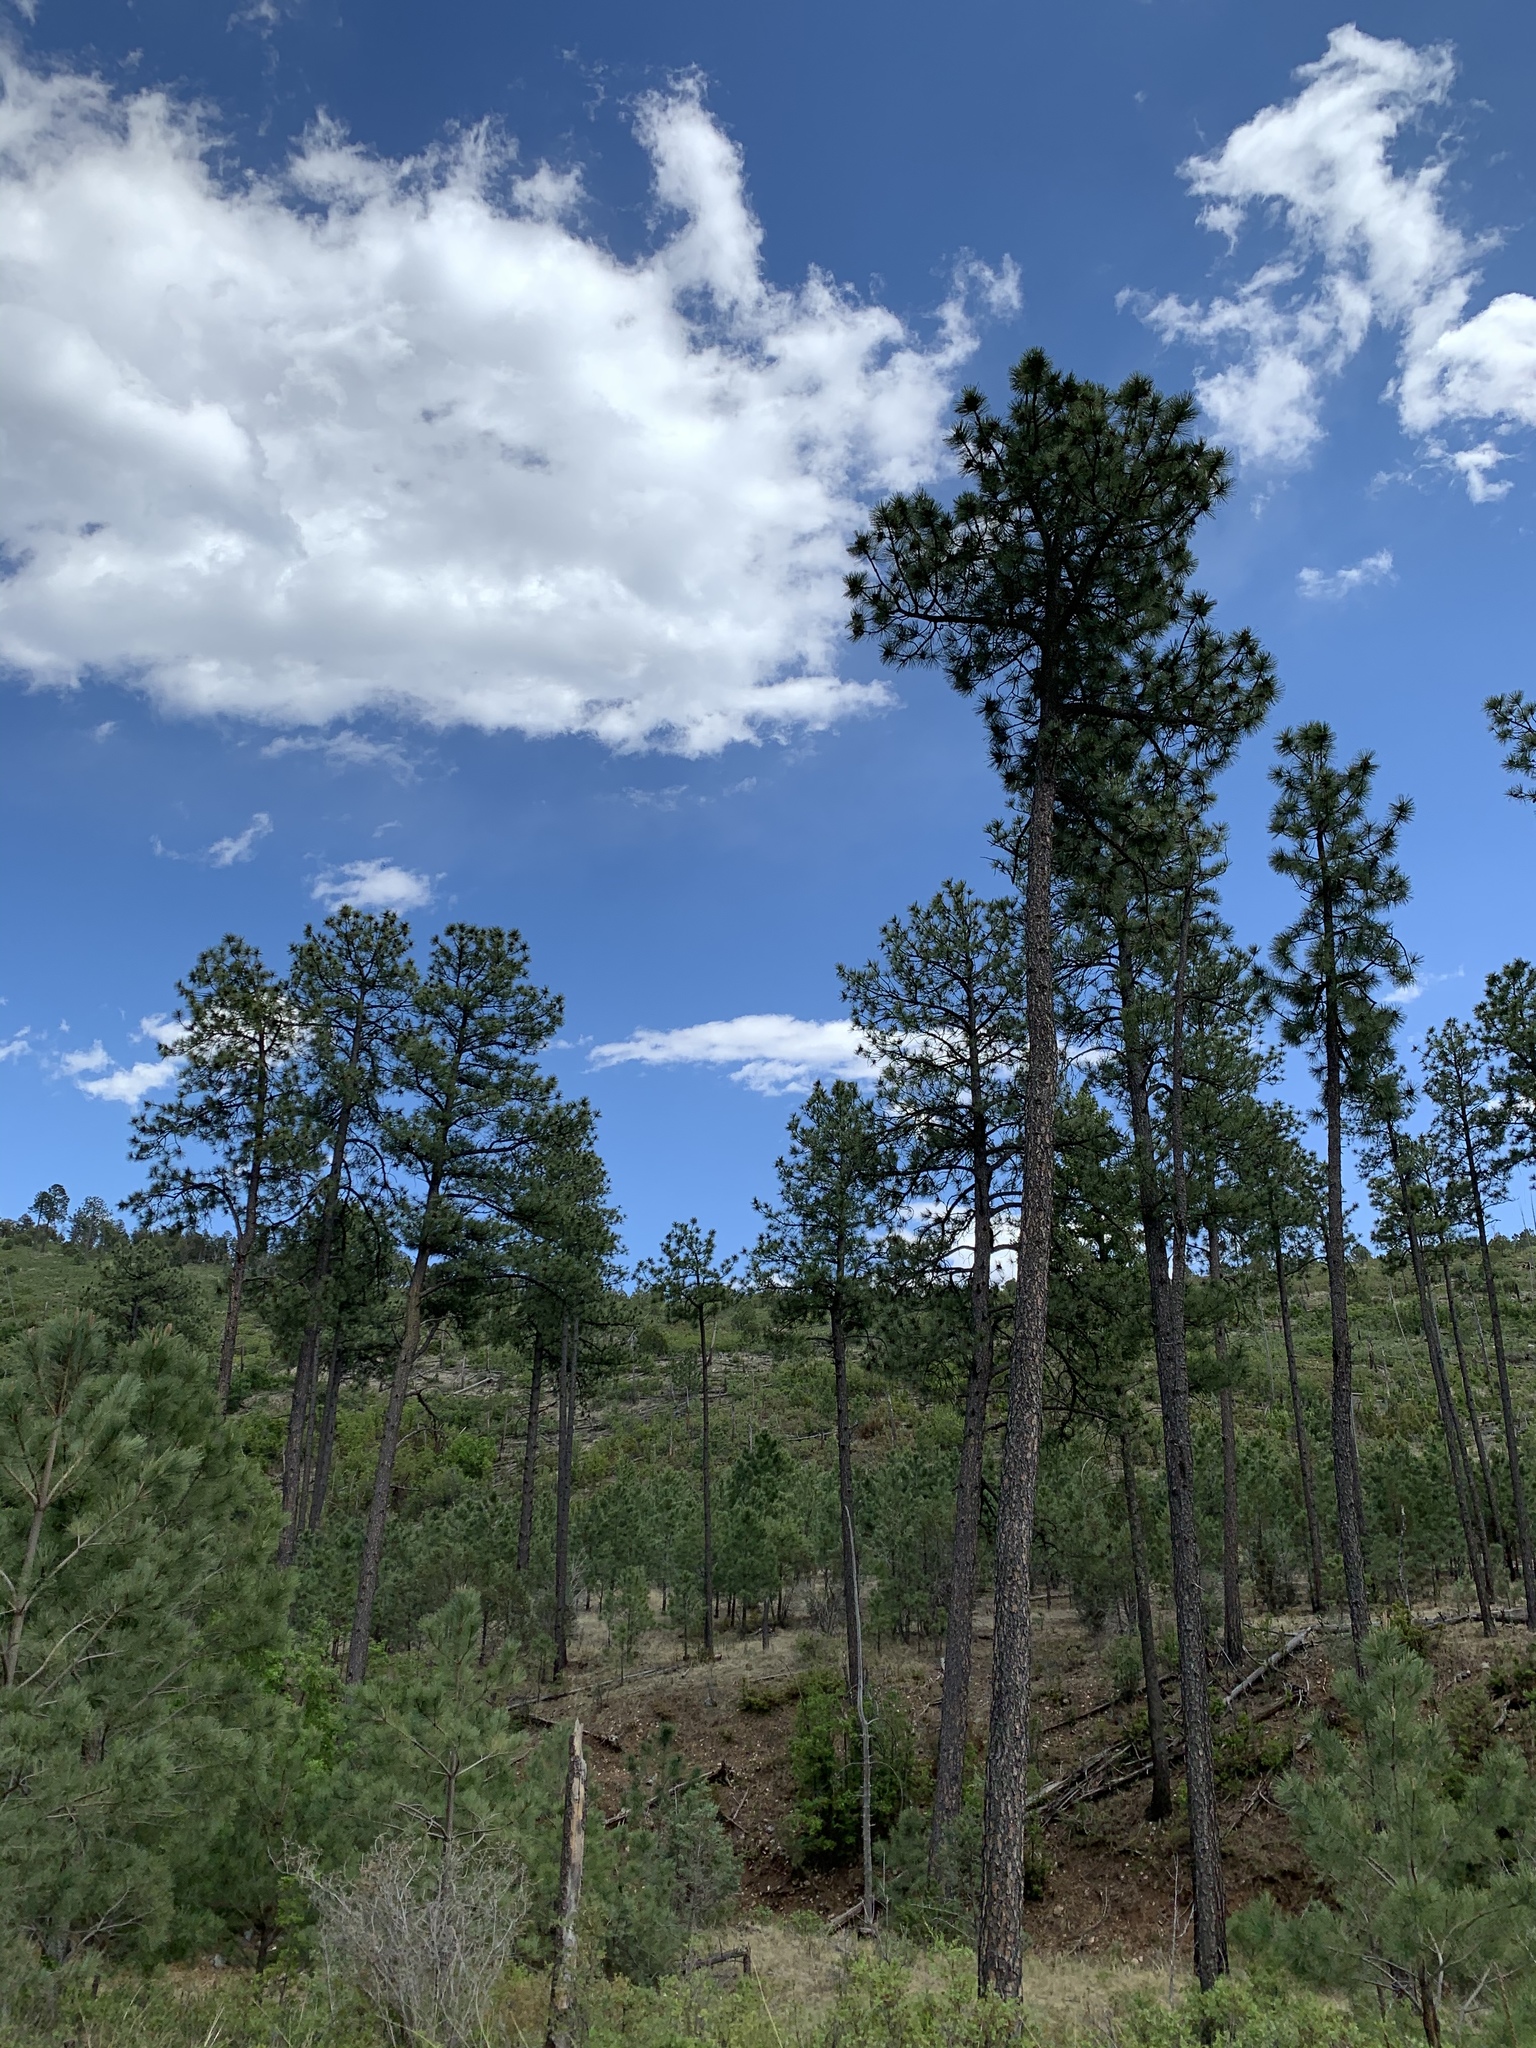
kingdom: Plantae
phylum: Tracheophyta
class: Pinopsida
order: Pinales
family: Pinaceae
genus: Pinus
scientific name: Pinus ponderosa
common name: Western yellow-pine
